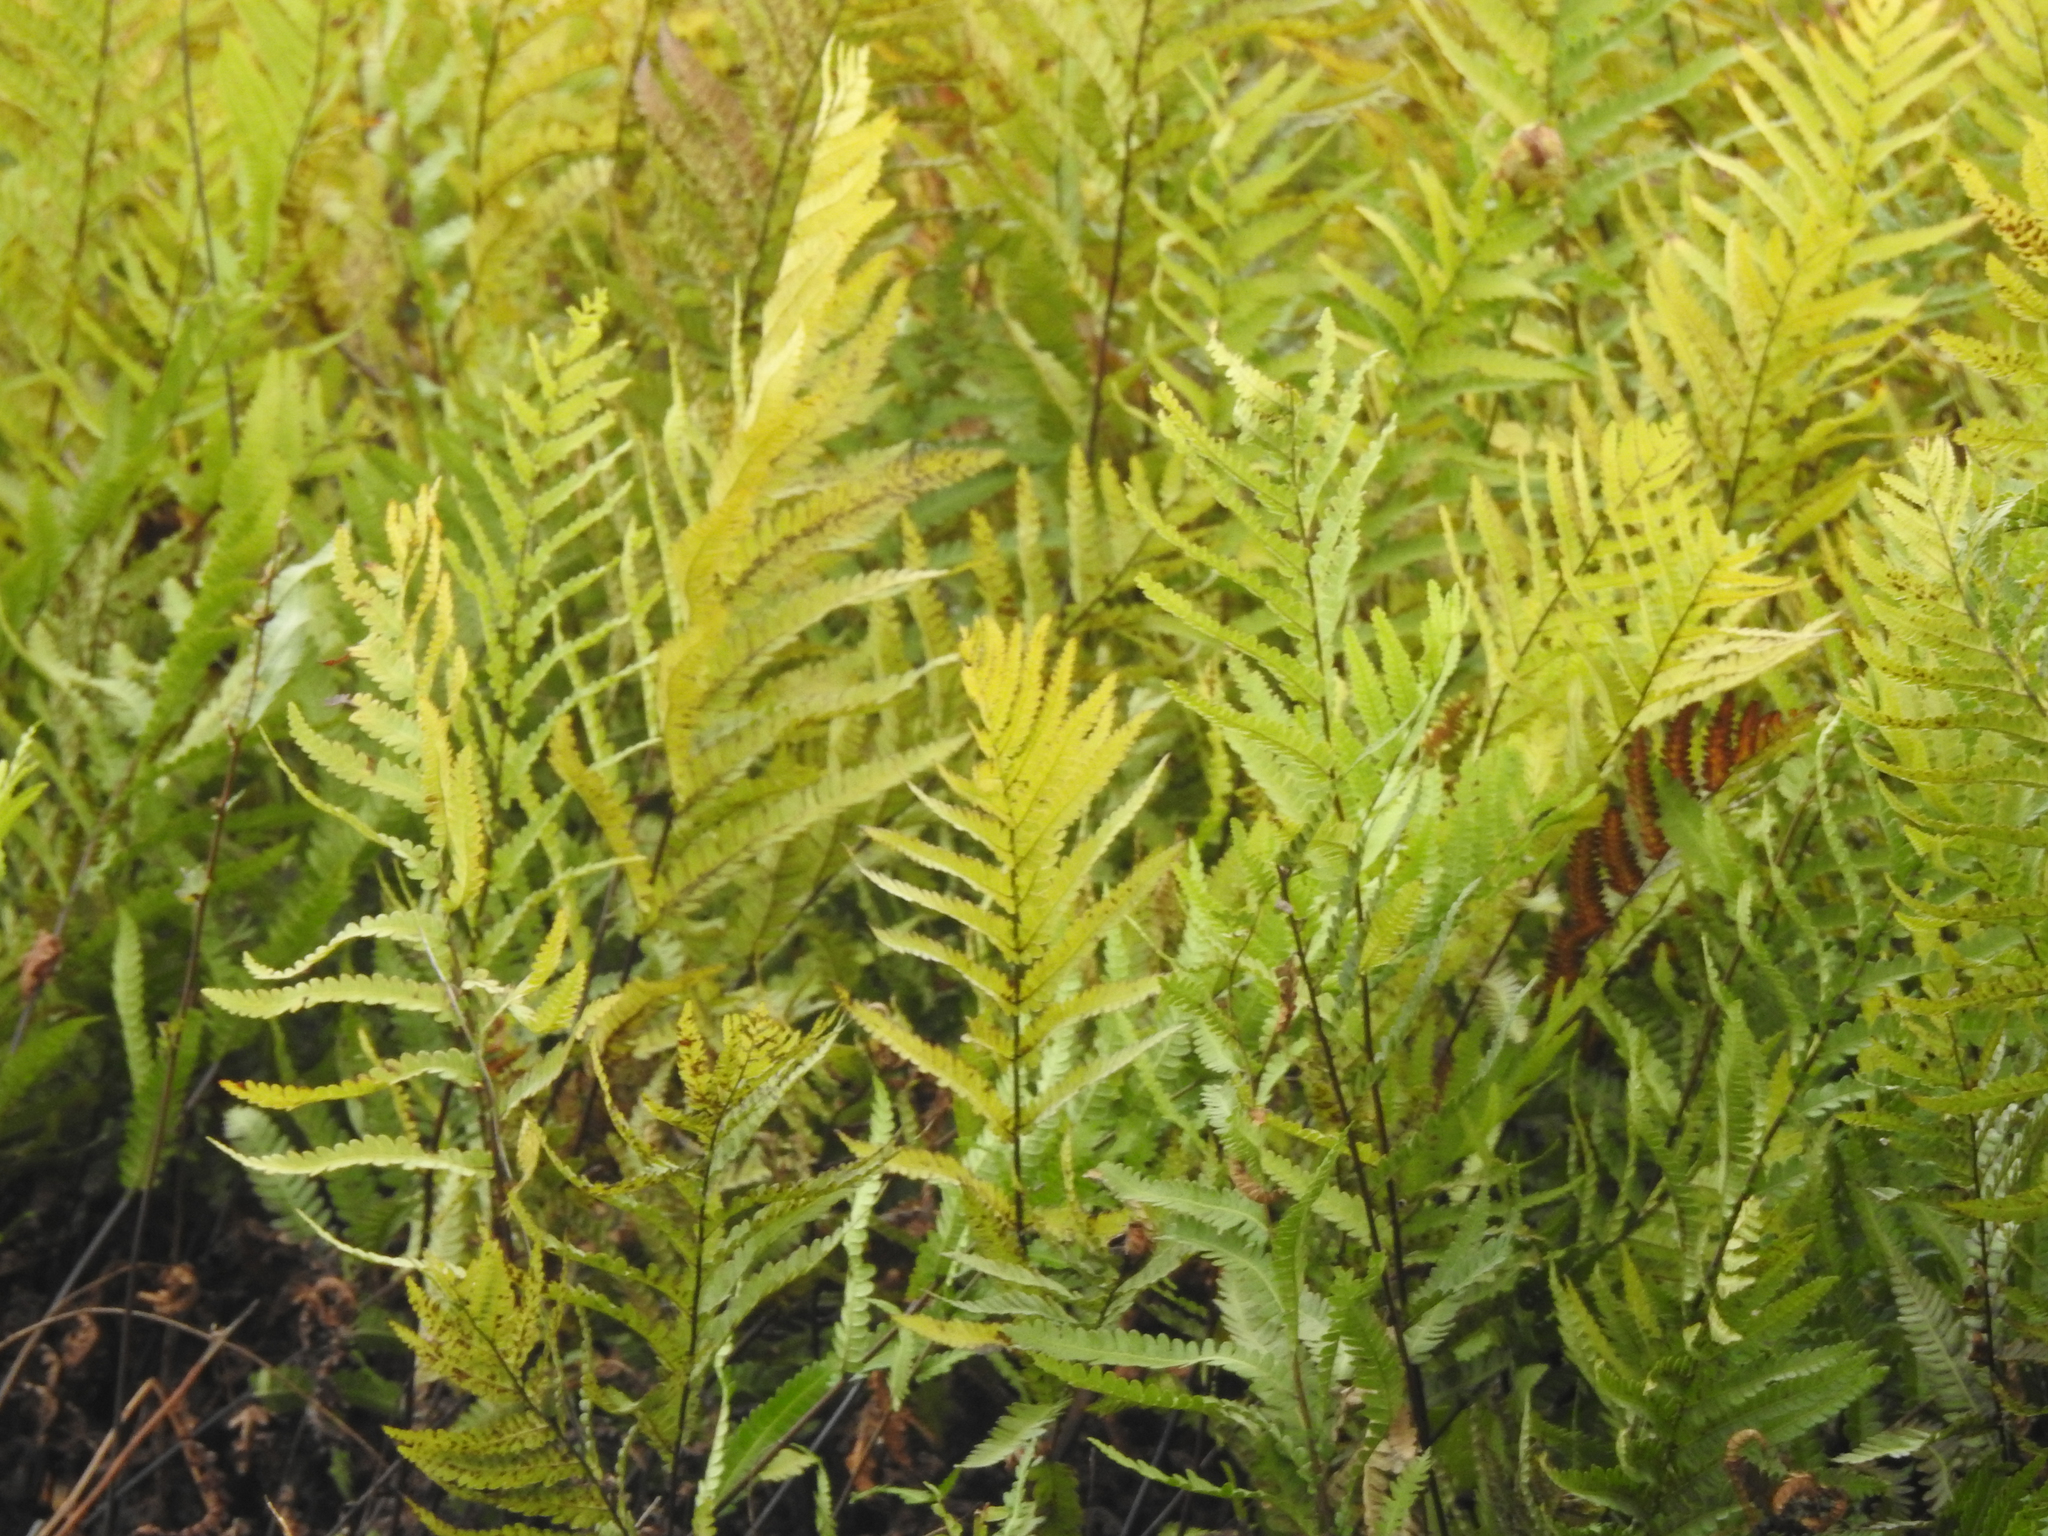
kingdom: Plantae
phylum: Tracheophyta
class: Polypodiopsida
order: Polypodiales
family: Blechnaceae
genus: Anchistea
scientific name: Anchistea virginica
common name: Virginia chain fern
